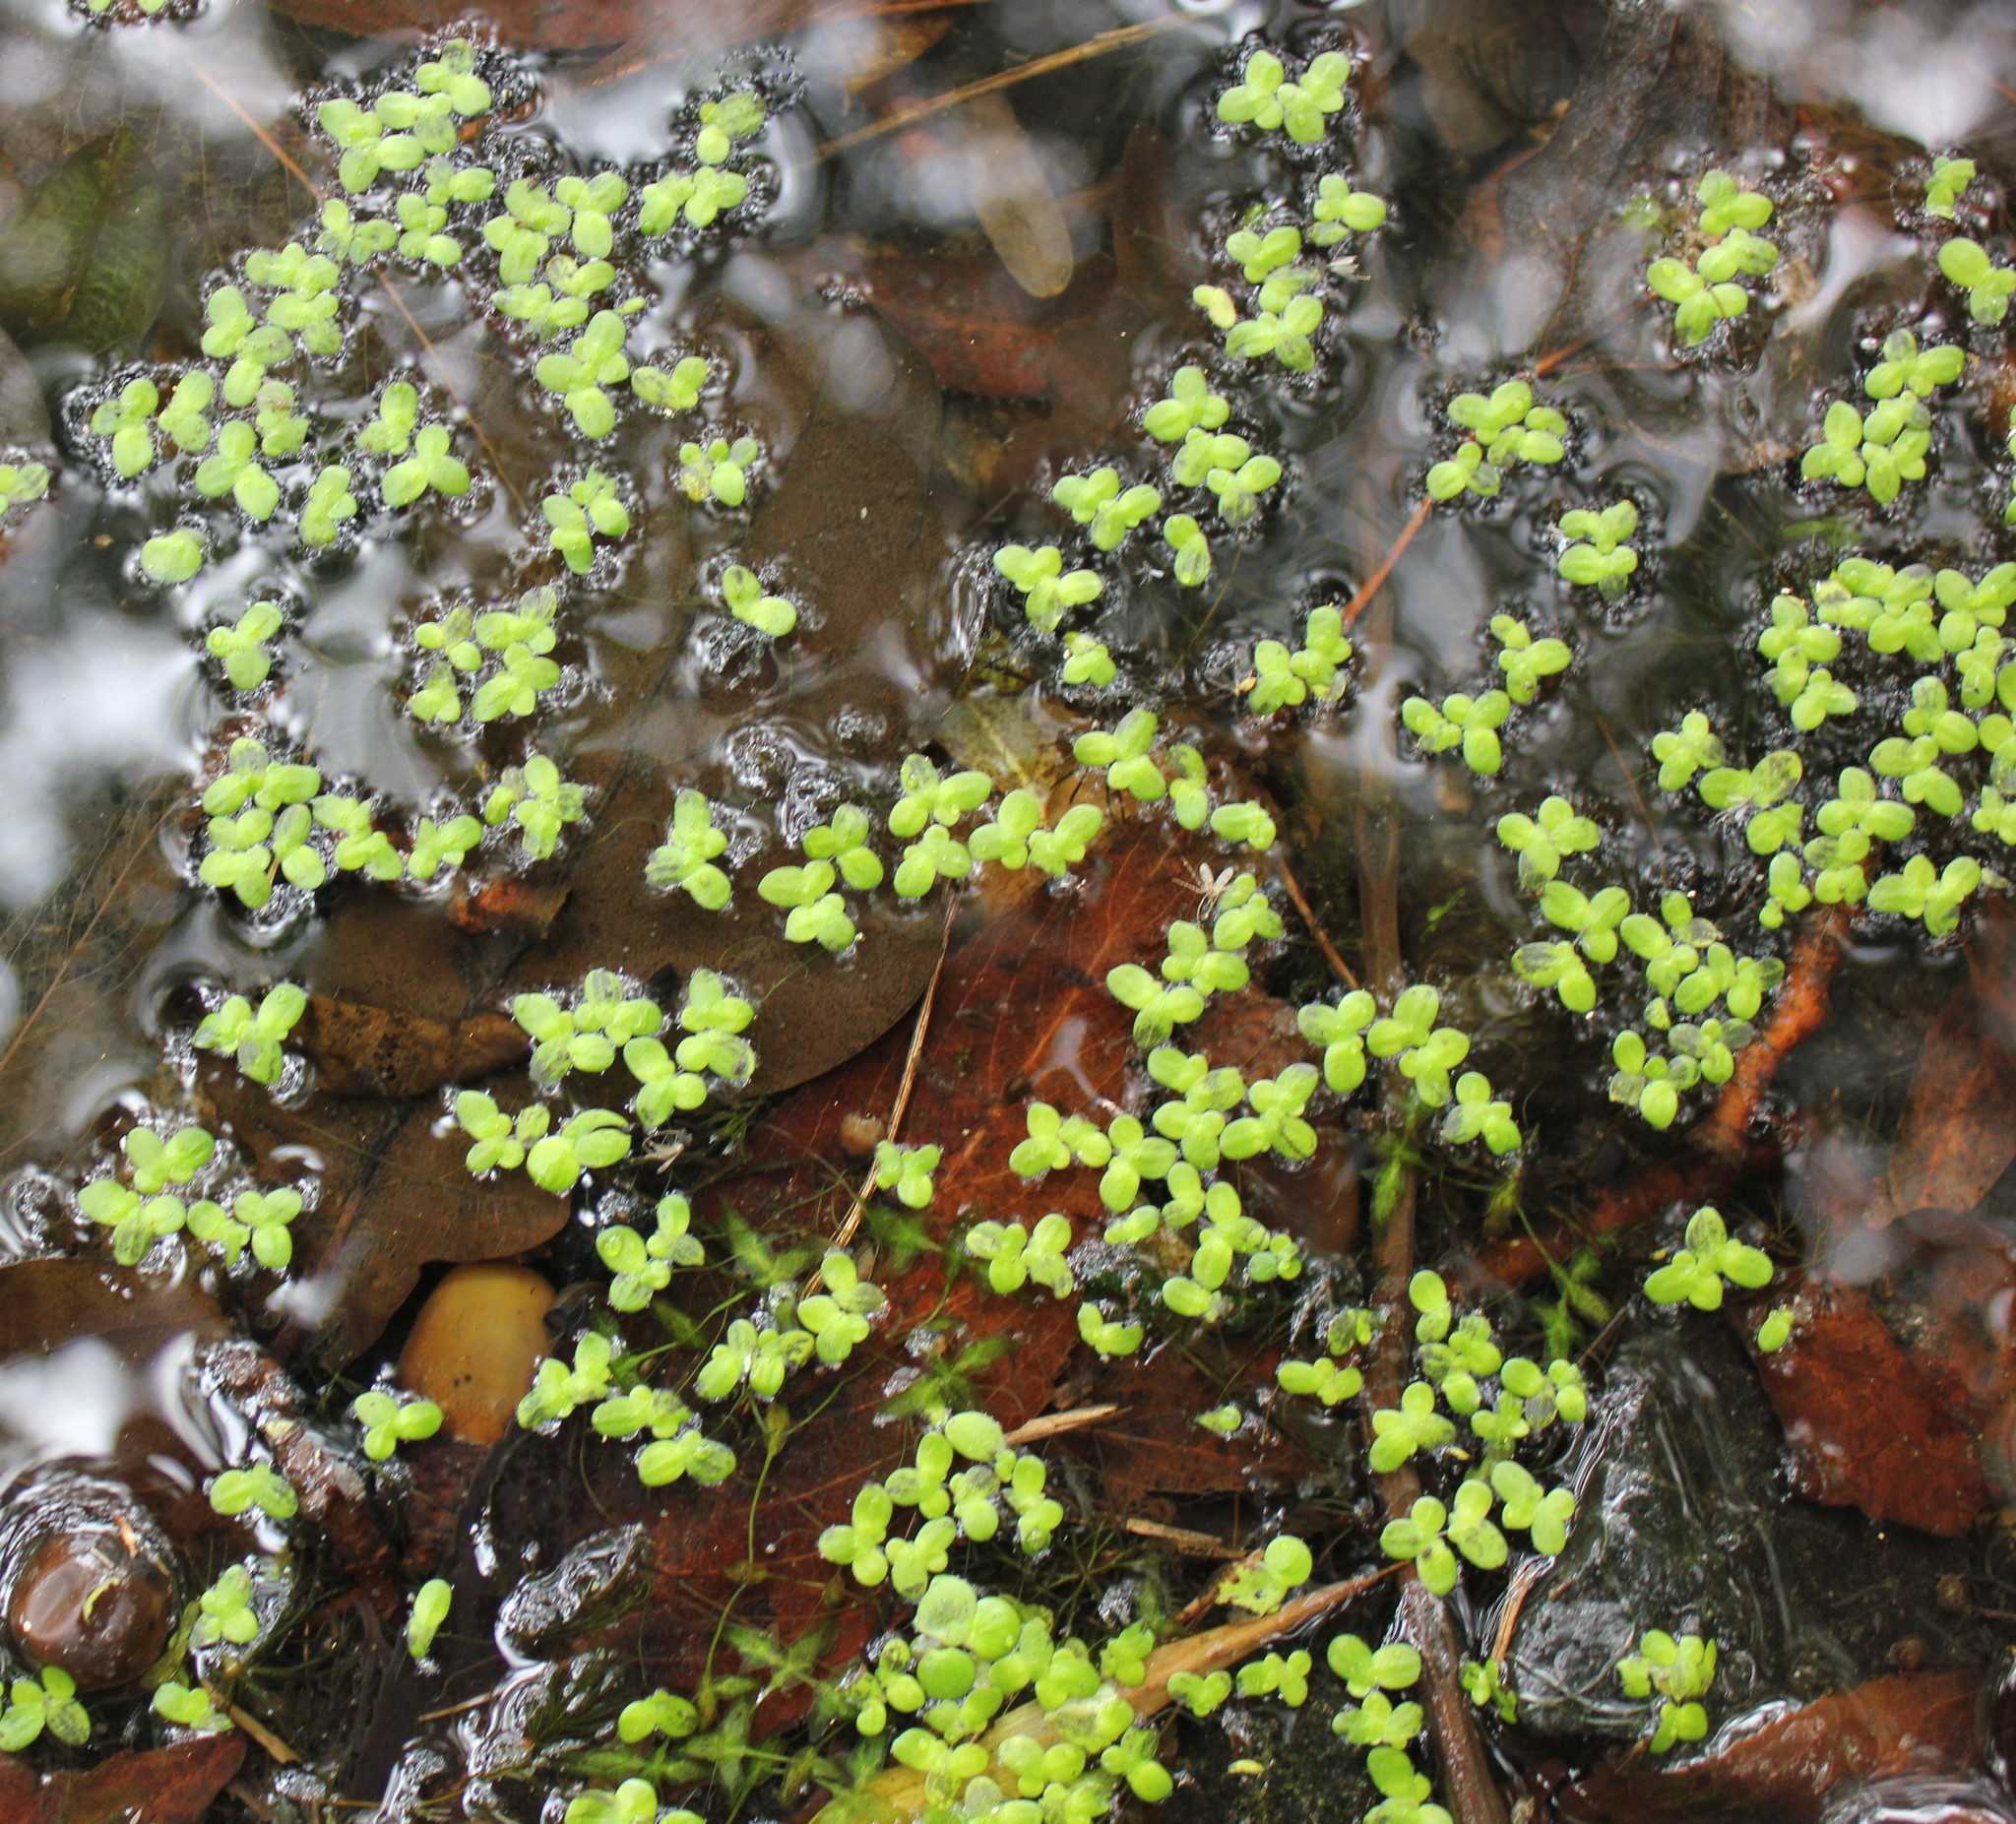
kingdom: Plantae
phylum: Tracheophyta
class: Liliopsida
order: Alismatales
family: Araceae
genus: Lemna
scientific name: Lemna minor
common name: Common duckweed
